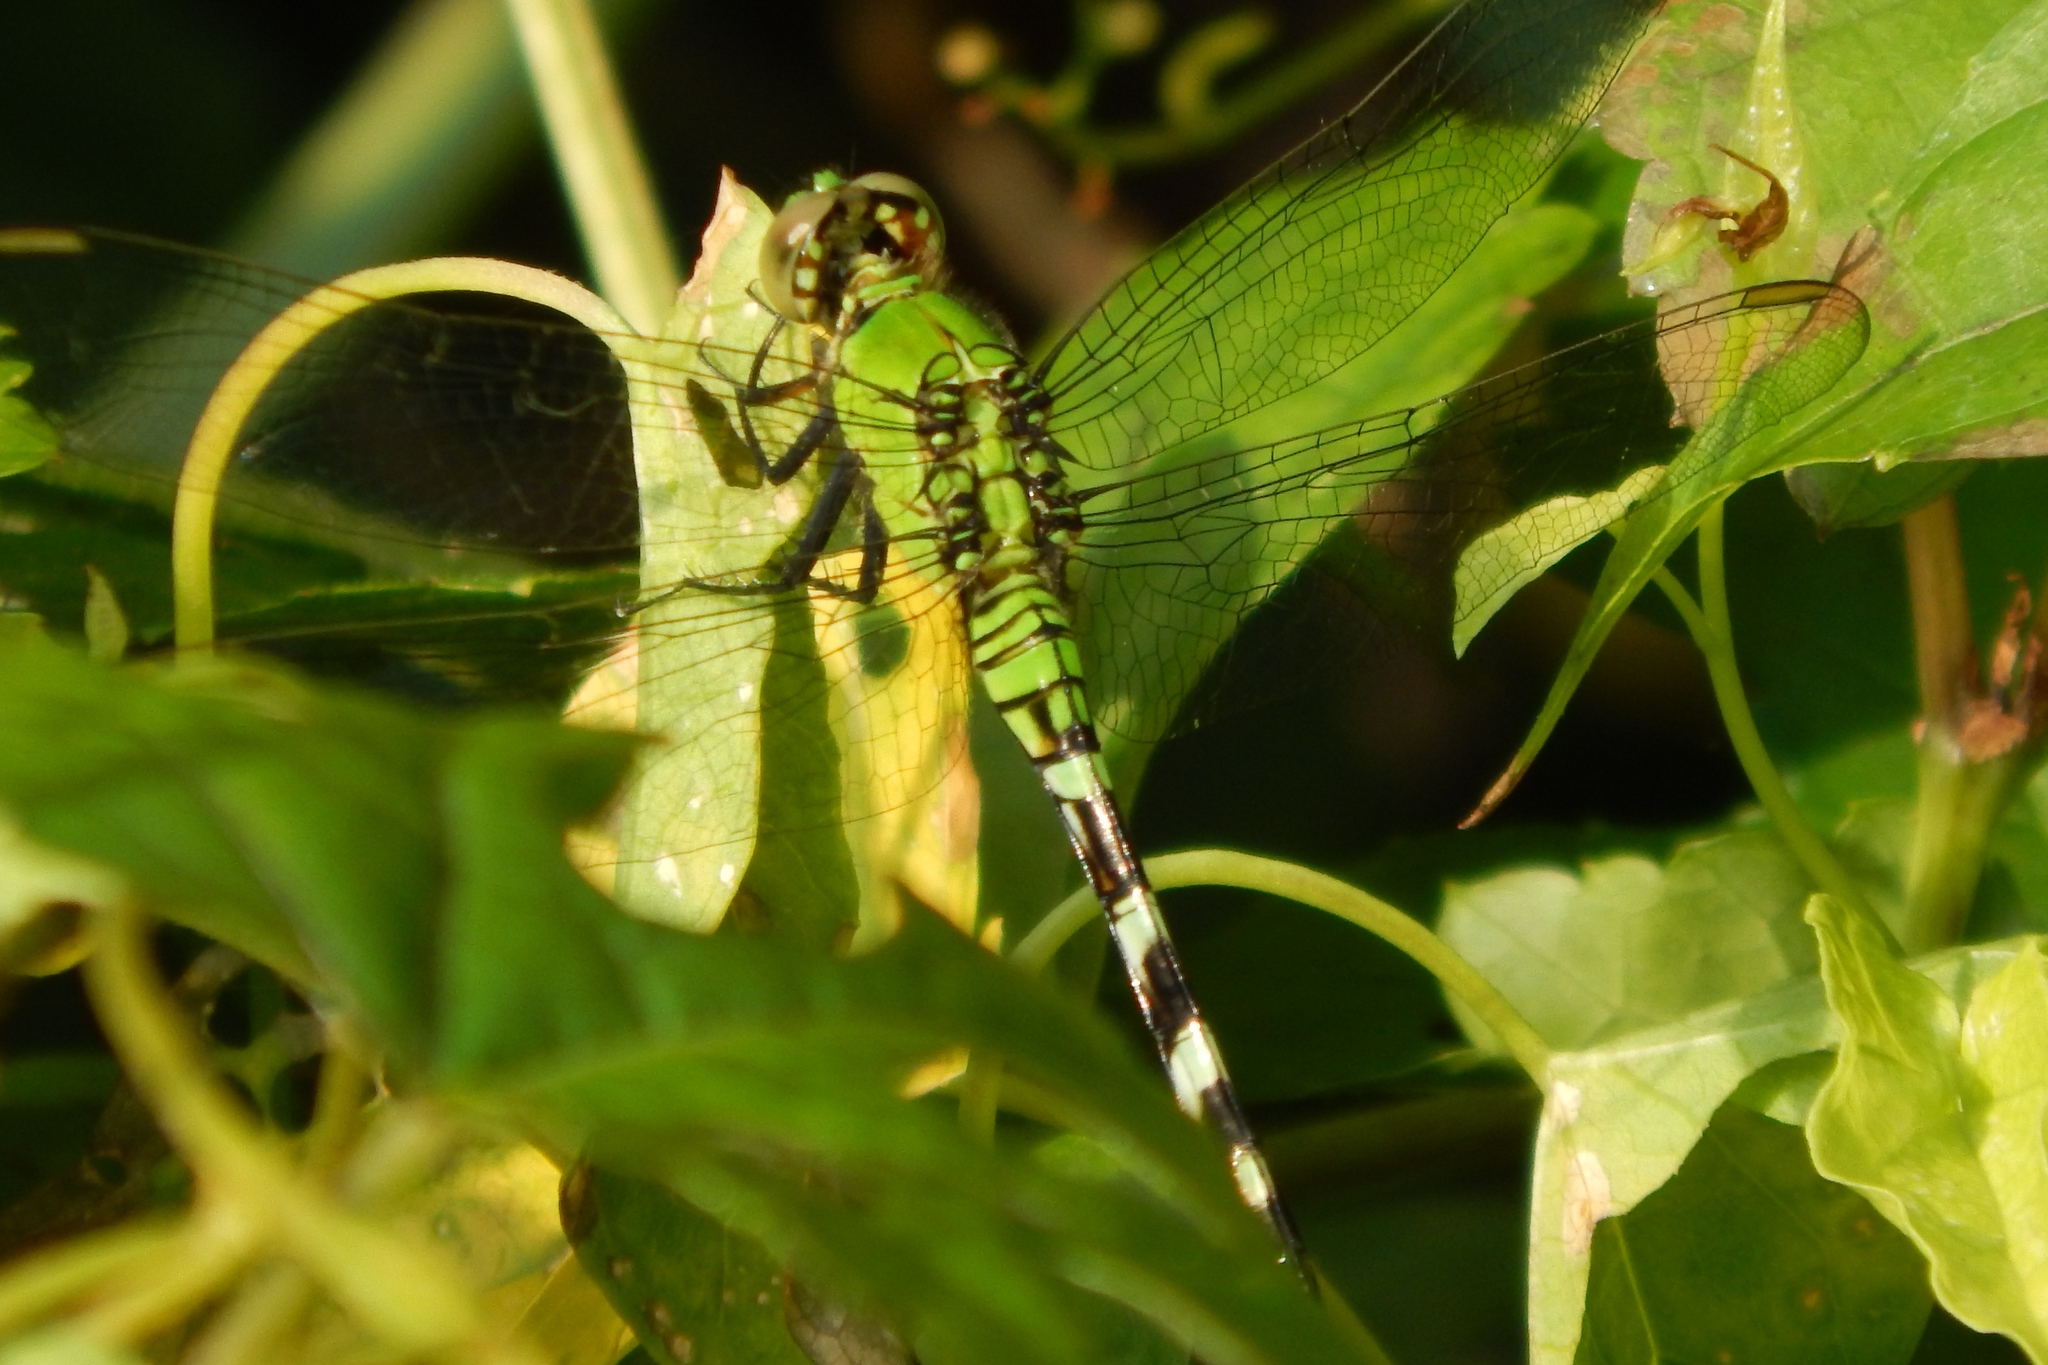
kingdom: Animalia
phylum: Arthropoda
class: Insecta
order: Odonata
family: Libellulidae
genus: Erythemis
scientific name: Erythemis simplicicollis
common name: Eastern pondhawk
